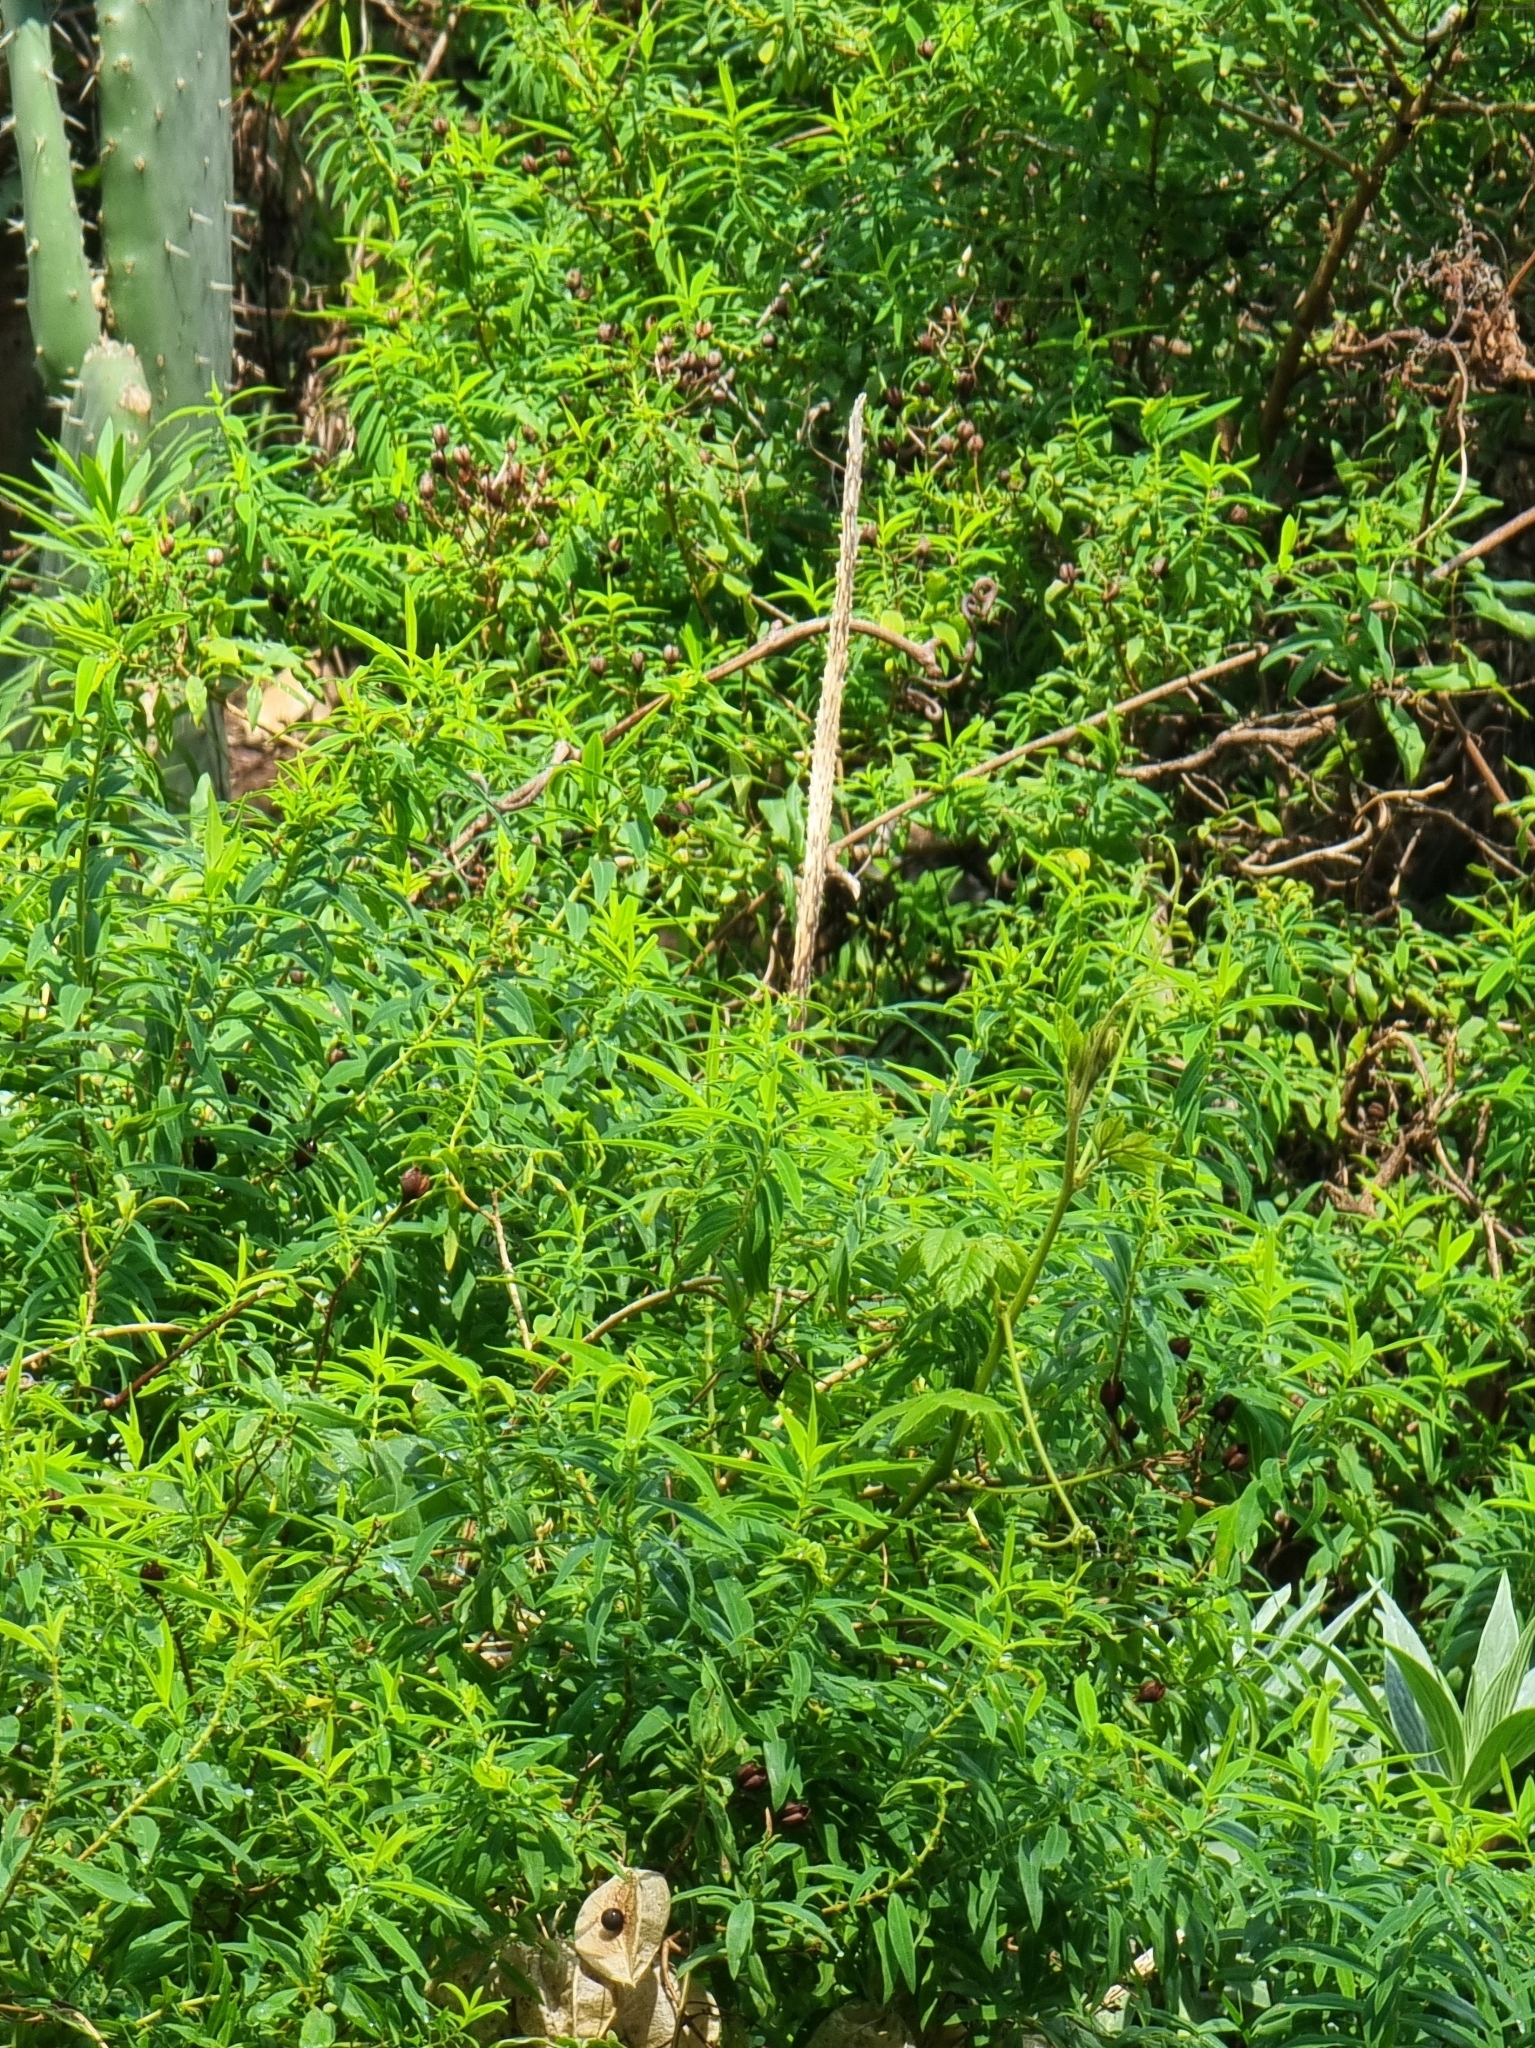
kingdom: Plantae
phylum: Tracheophyta
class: Magnoliopsida
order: Malpighiales
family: Hypericaceae
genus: Hypericum
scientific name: Hypericum canariense
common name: Canary island st. johnswort
